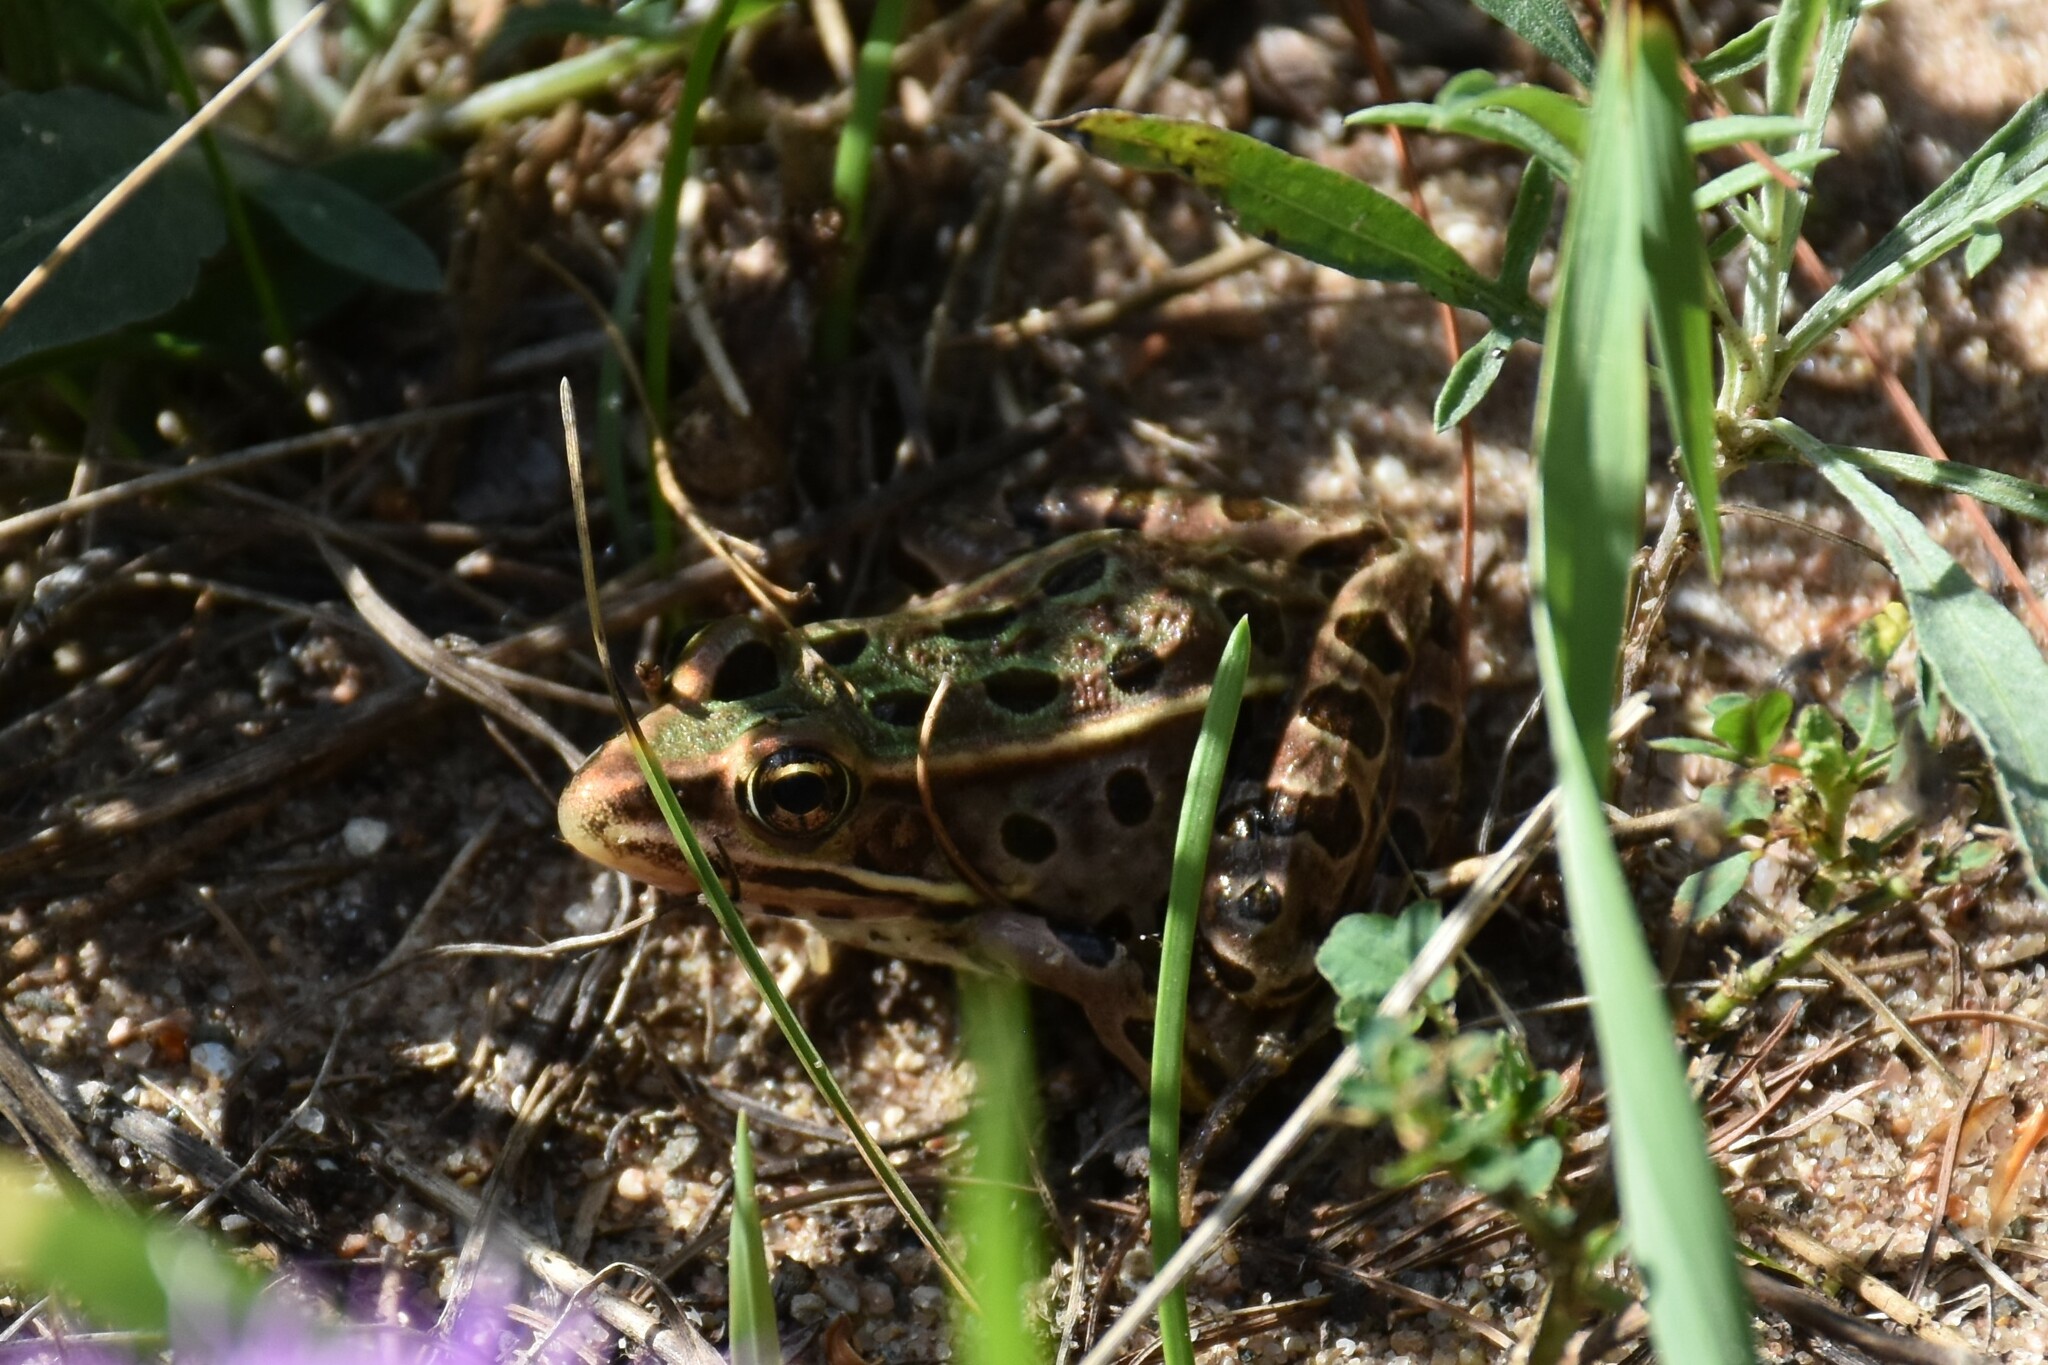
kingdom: Animalia
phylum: Chordata
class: Amphibia
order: Anura
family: Ranidae
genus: Lithobates
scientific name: Lithobates pipiens
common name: Northern leopard frog
